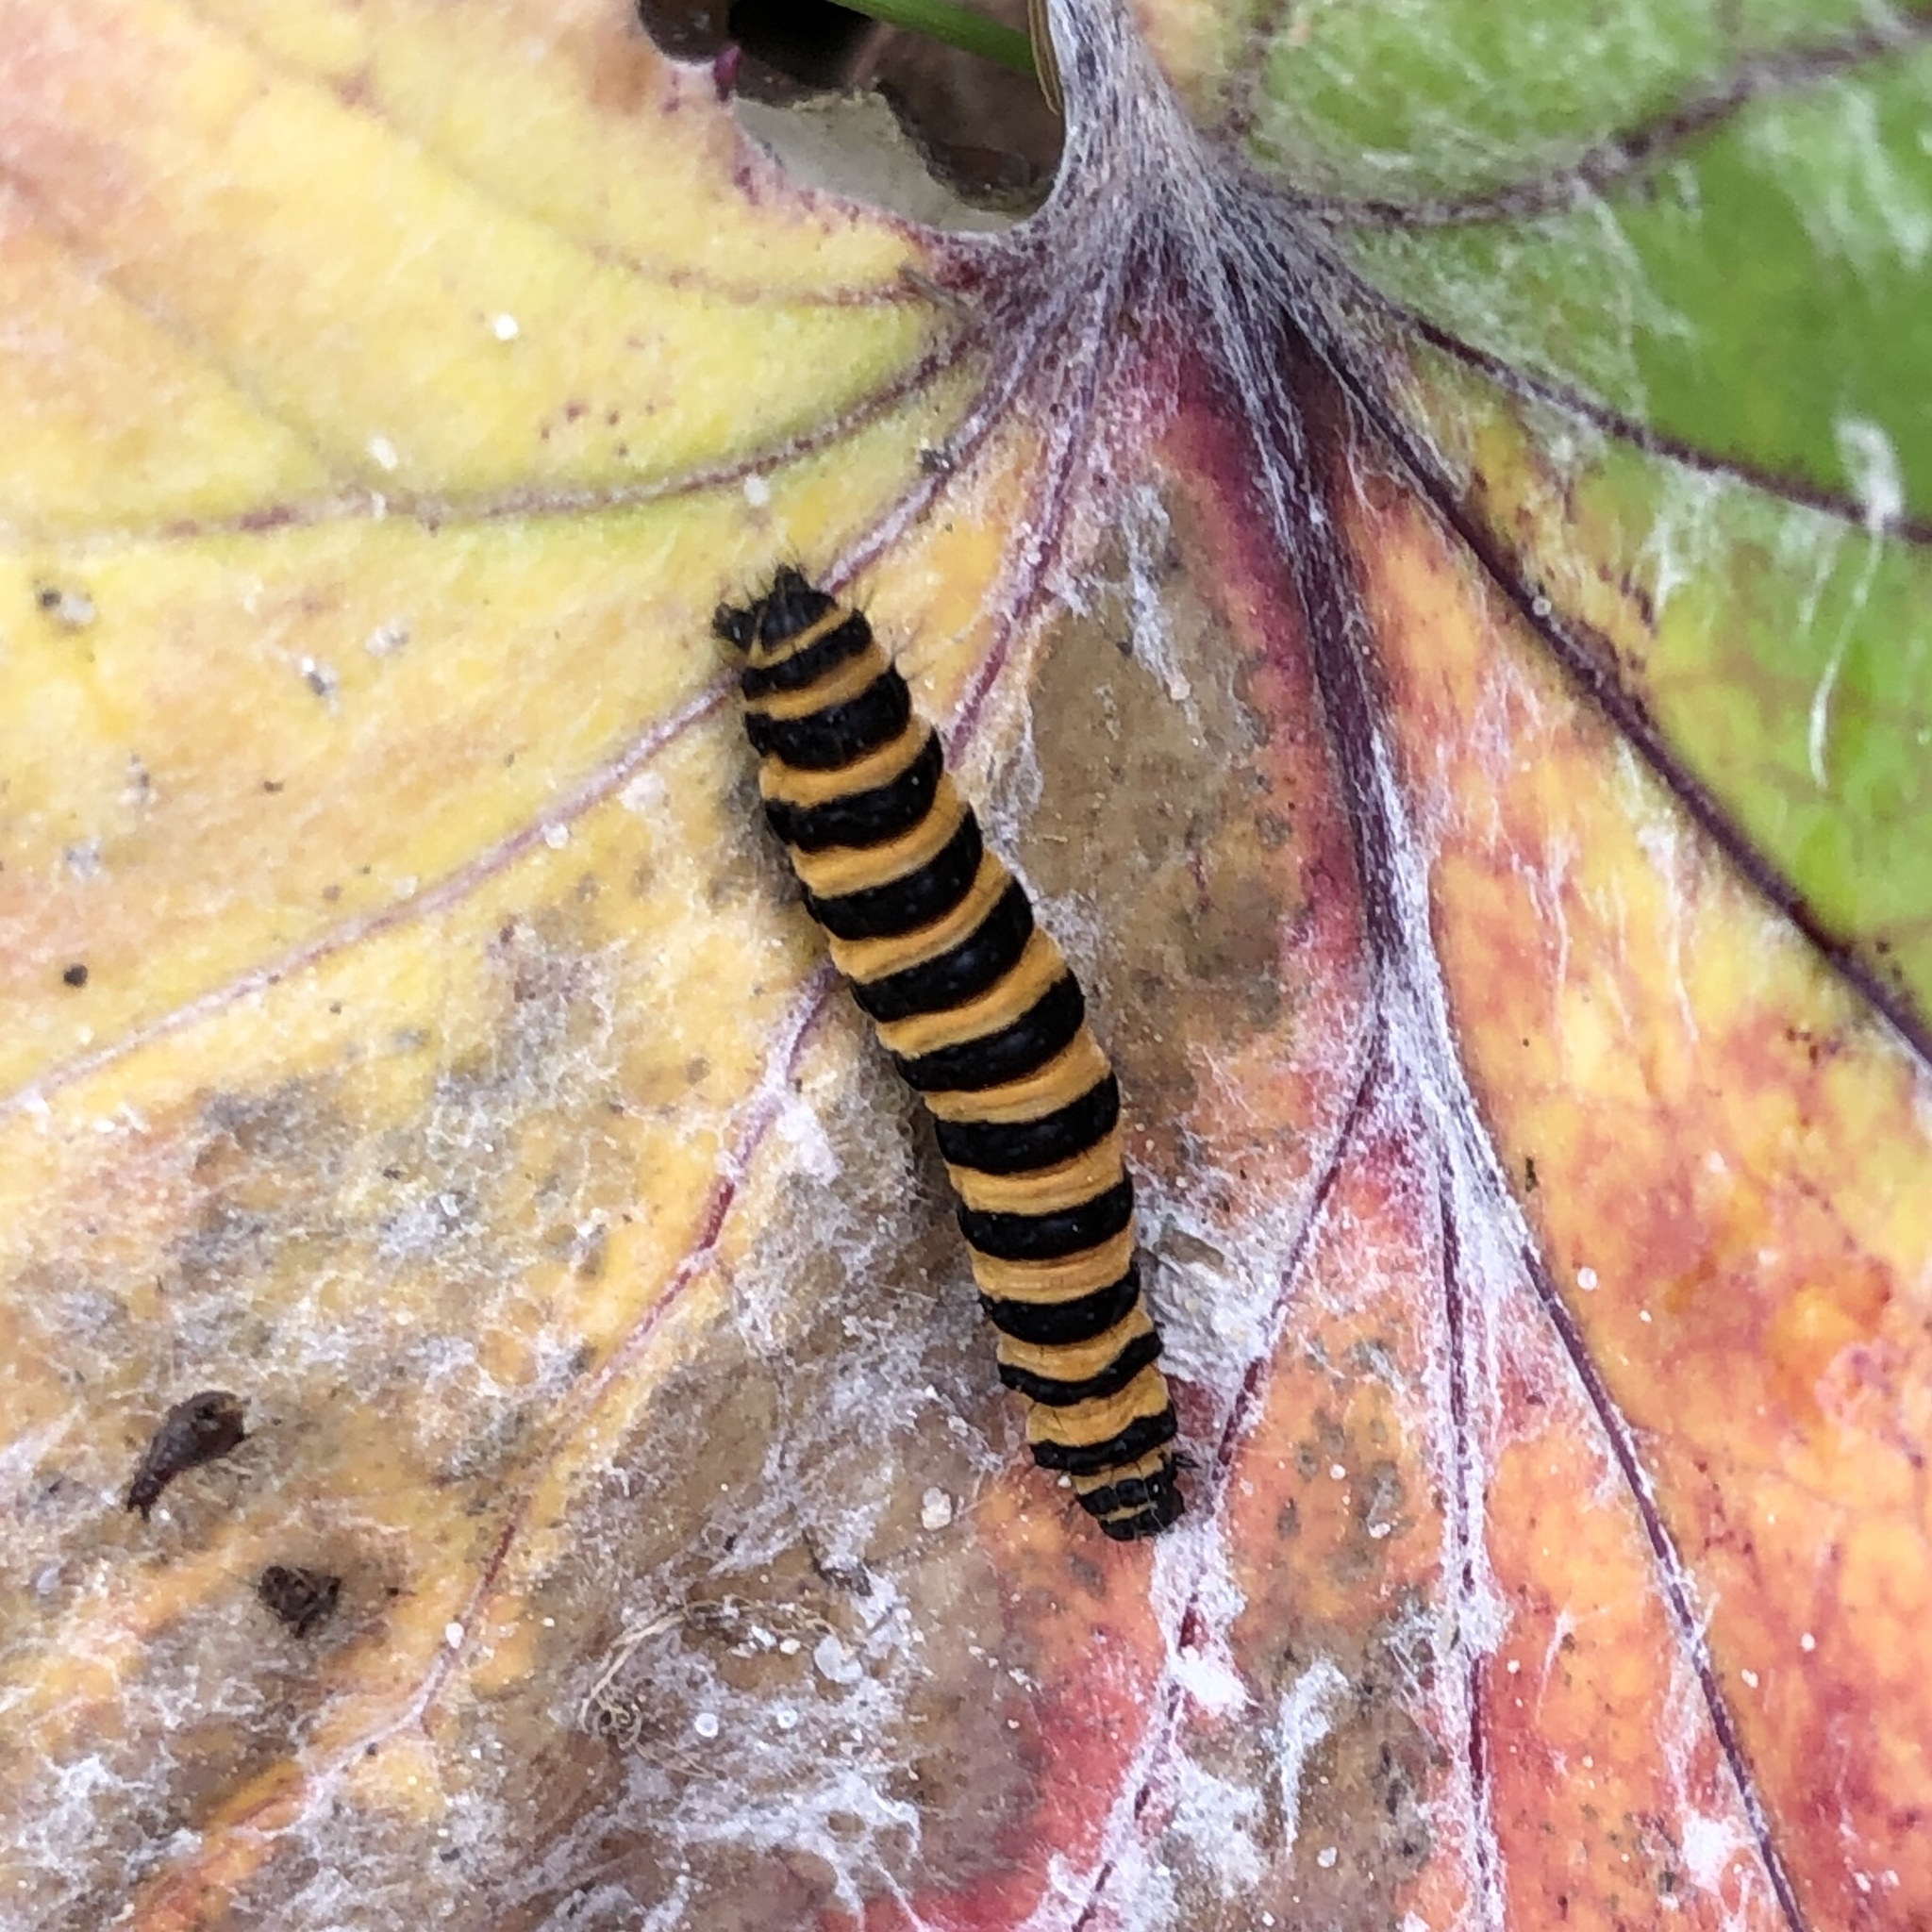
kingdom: Animalia
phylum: Arthropoda
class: Insecta
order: Lepidoptera
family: Erebidae
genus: Tyria
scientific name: Tyria jacobaeae
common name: Cinnabar
